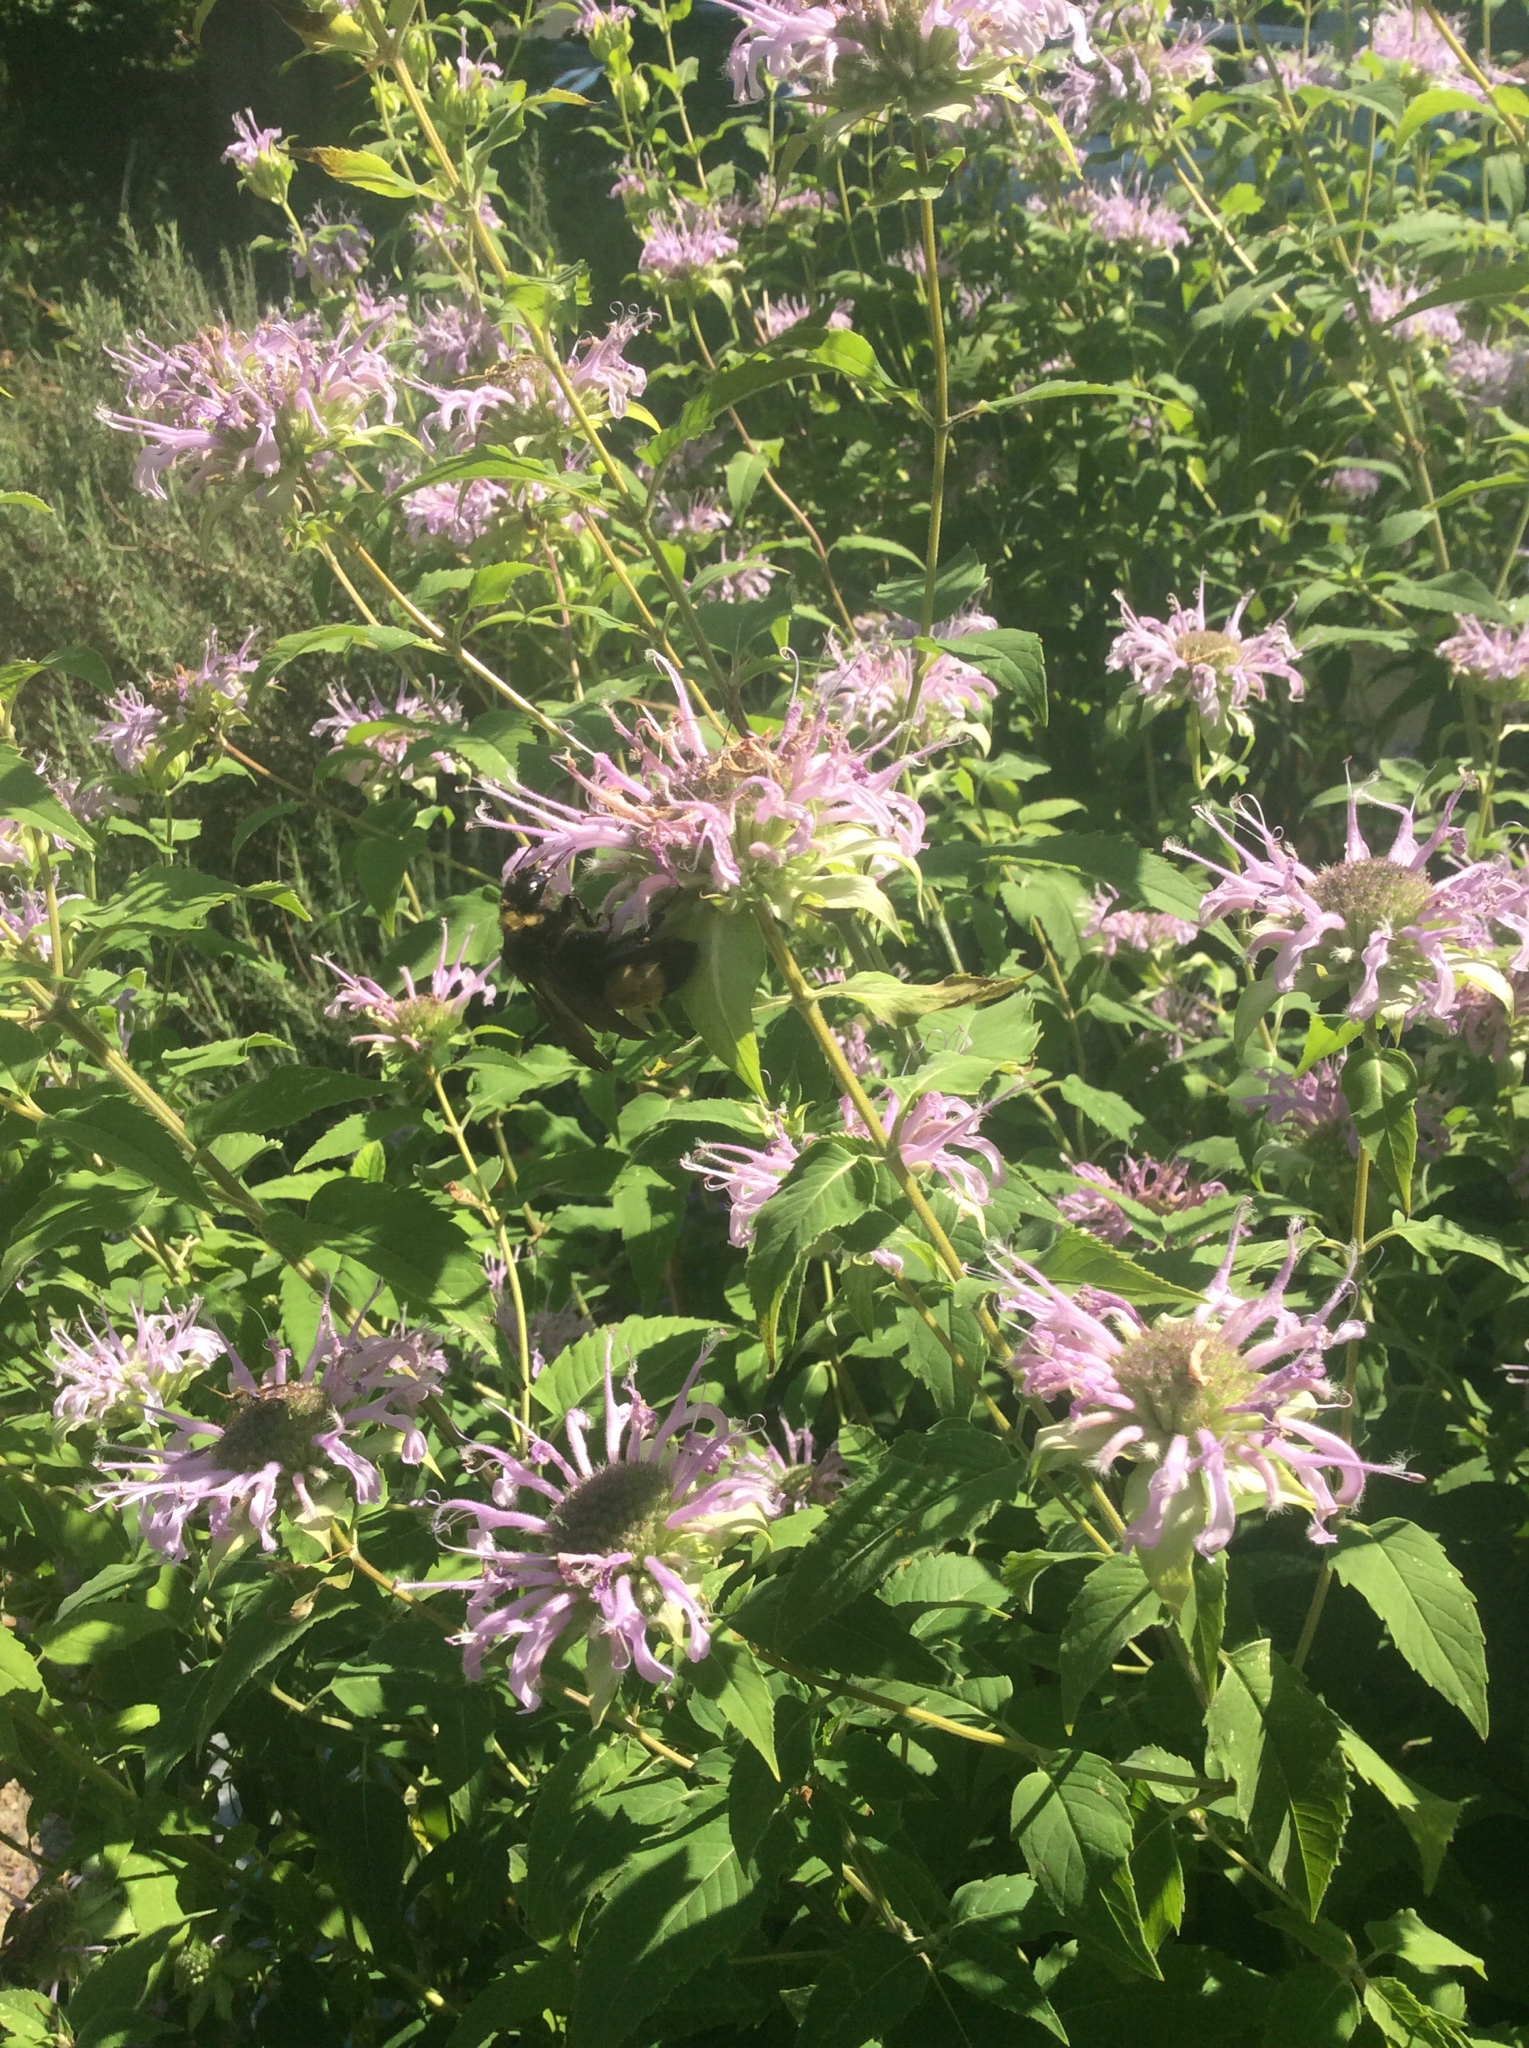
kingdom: Animalia
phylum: Arthropoda
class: Insecta
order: Hymenoptera
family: Apidae
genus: Bombus
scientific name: Bombus auricomus
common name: Black and gold bumble bee
